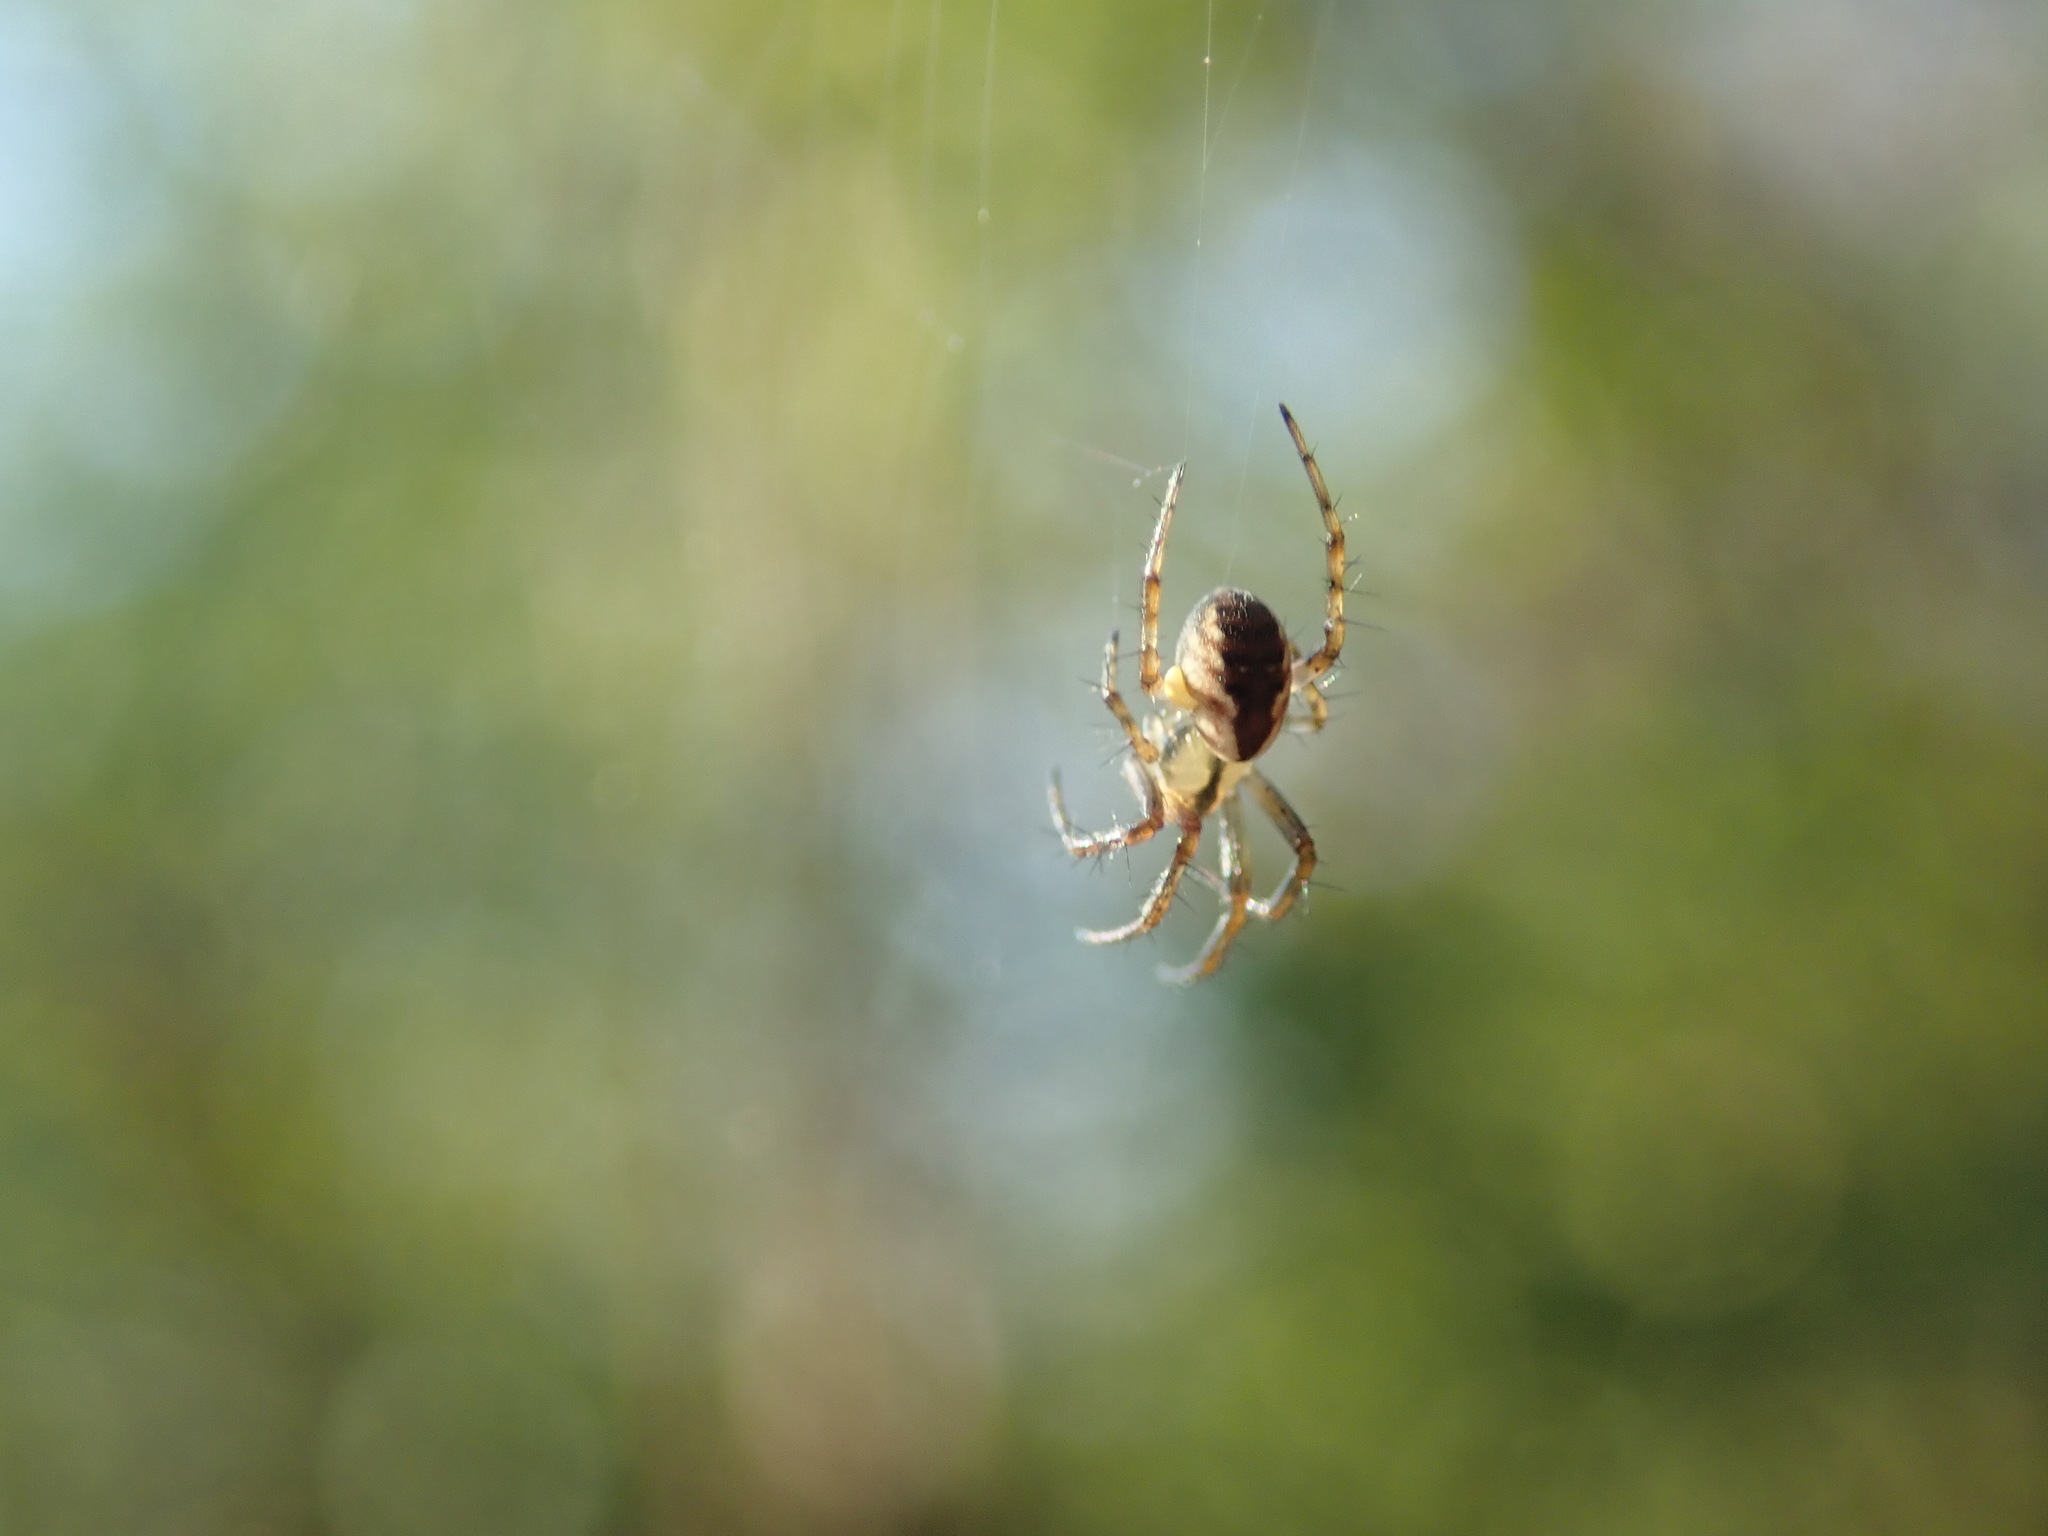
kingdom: Animalia
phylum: Arthropoda
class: Arachnida
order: Araneae
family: Araneidae
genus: Mangora
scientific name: Mangora placida
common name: Tuft-legged orbweaver
